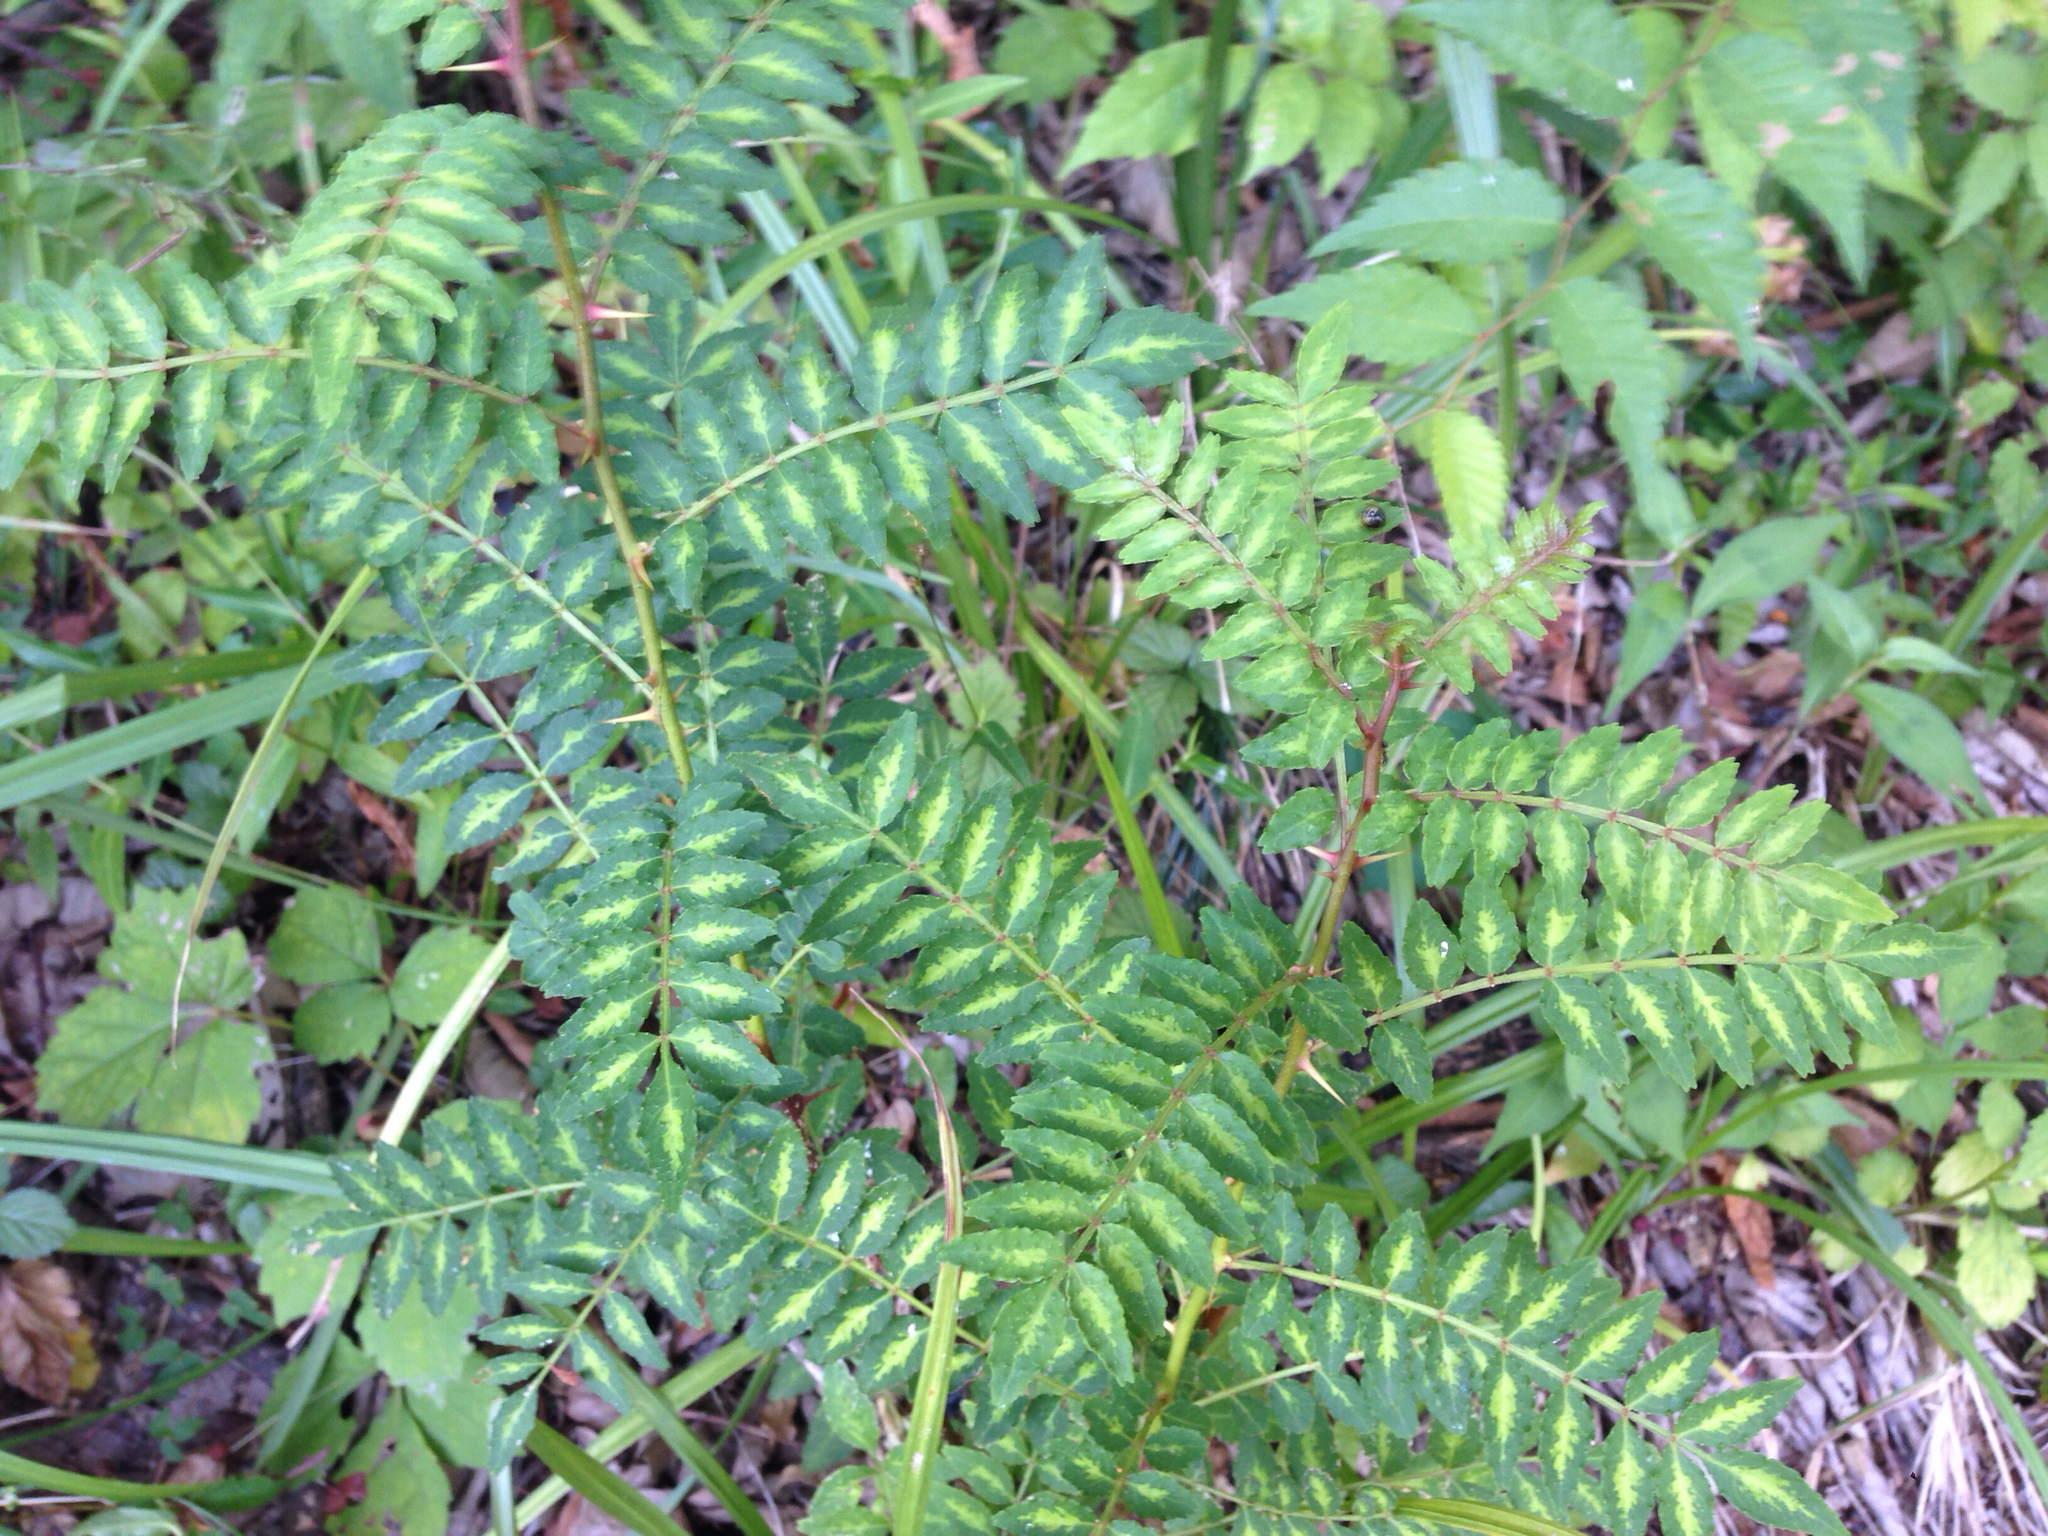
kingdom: Plantae
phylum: Tracheophyta
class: Magnoliopsida
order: Sapindales
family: Rutaceae
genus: Zanthoxylum
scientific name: Zanthoxylum piperitum
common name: Japanese-pepper
